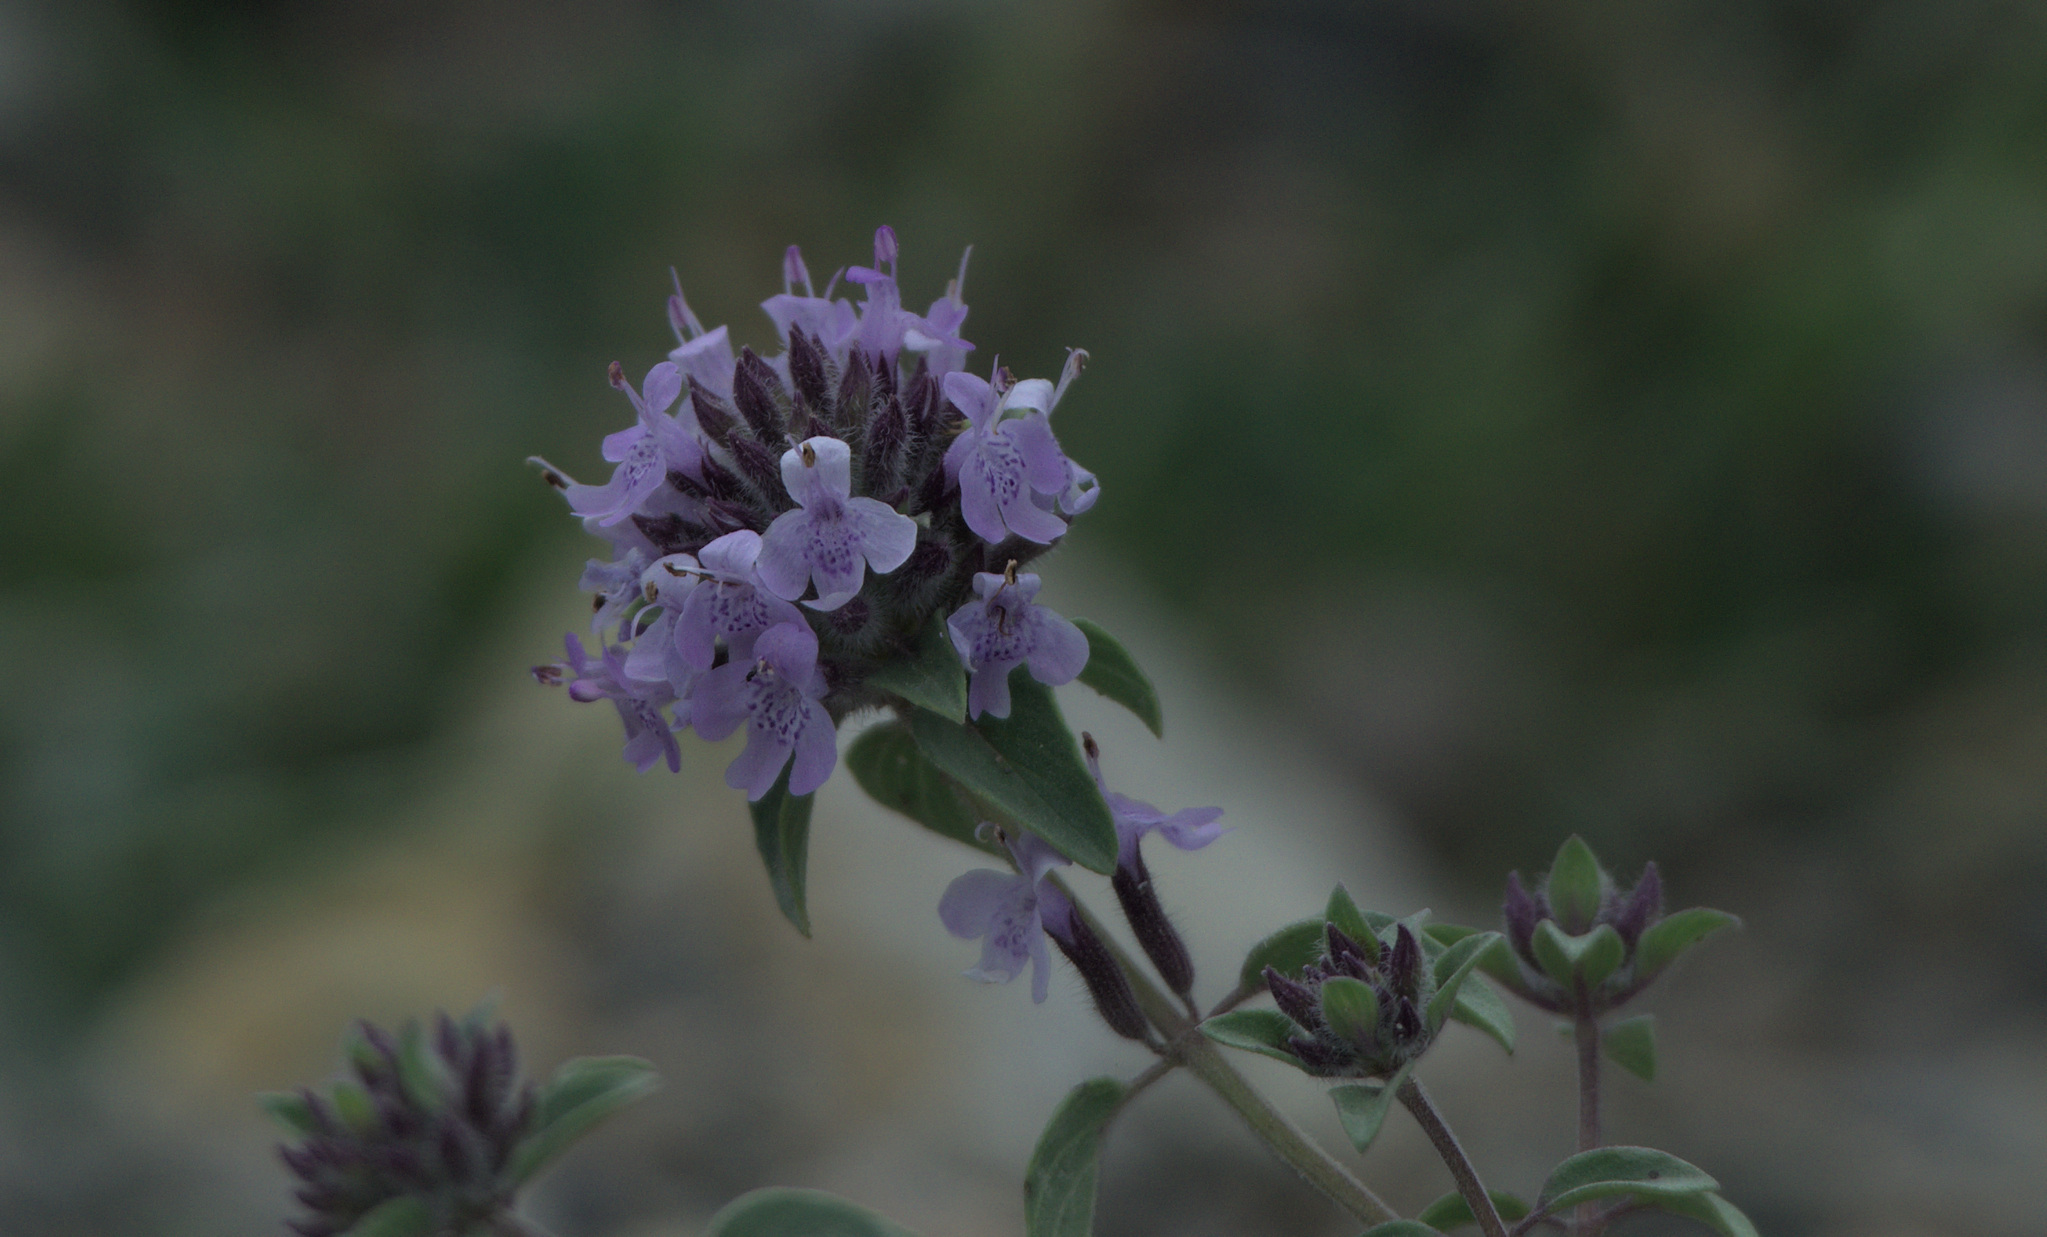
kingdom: Plantae
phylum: Tracheophyta
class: Magnoliopsida
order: Lamiales
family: Lamiaceae
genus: Ziziphora
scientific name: Ziziphora clinopodioides
